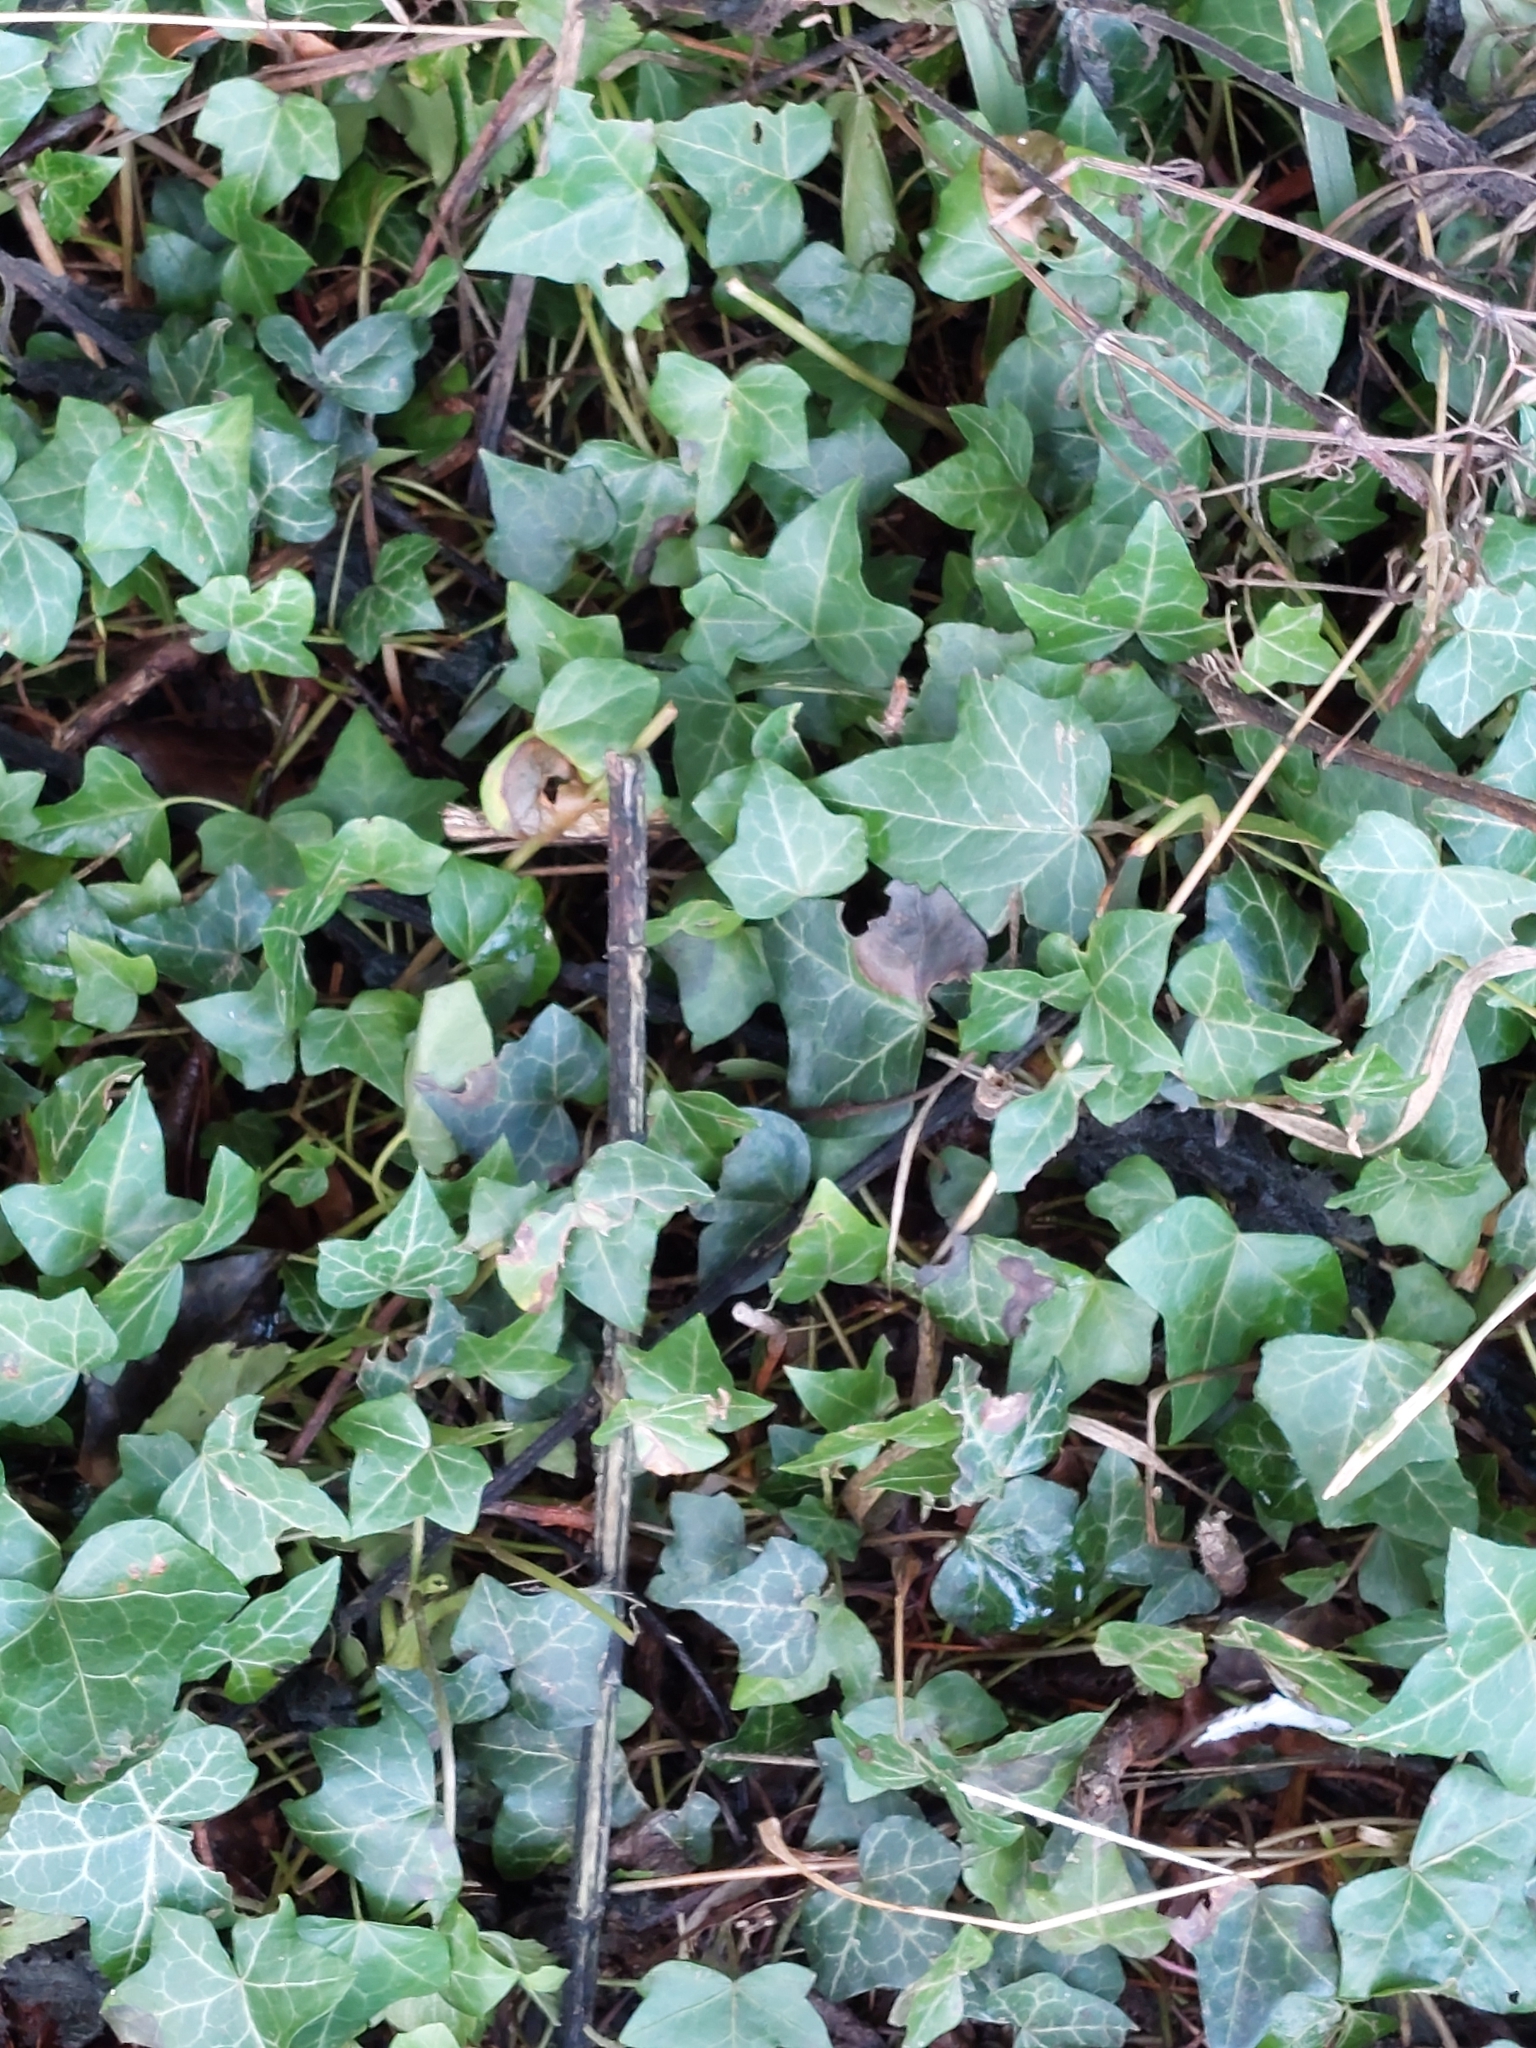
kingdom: Plantae
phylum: Tracheophyta
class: Magnoliopsida
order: Apiales
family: Araliaceae
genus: Hedera
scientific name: Hedera helix
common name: Ivy
